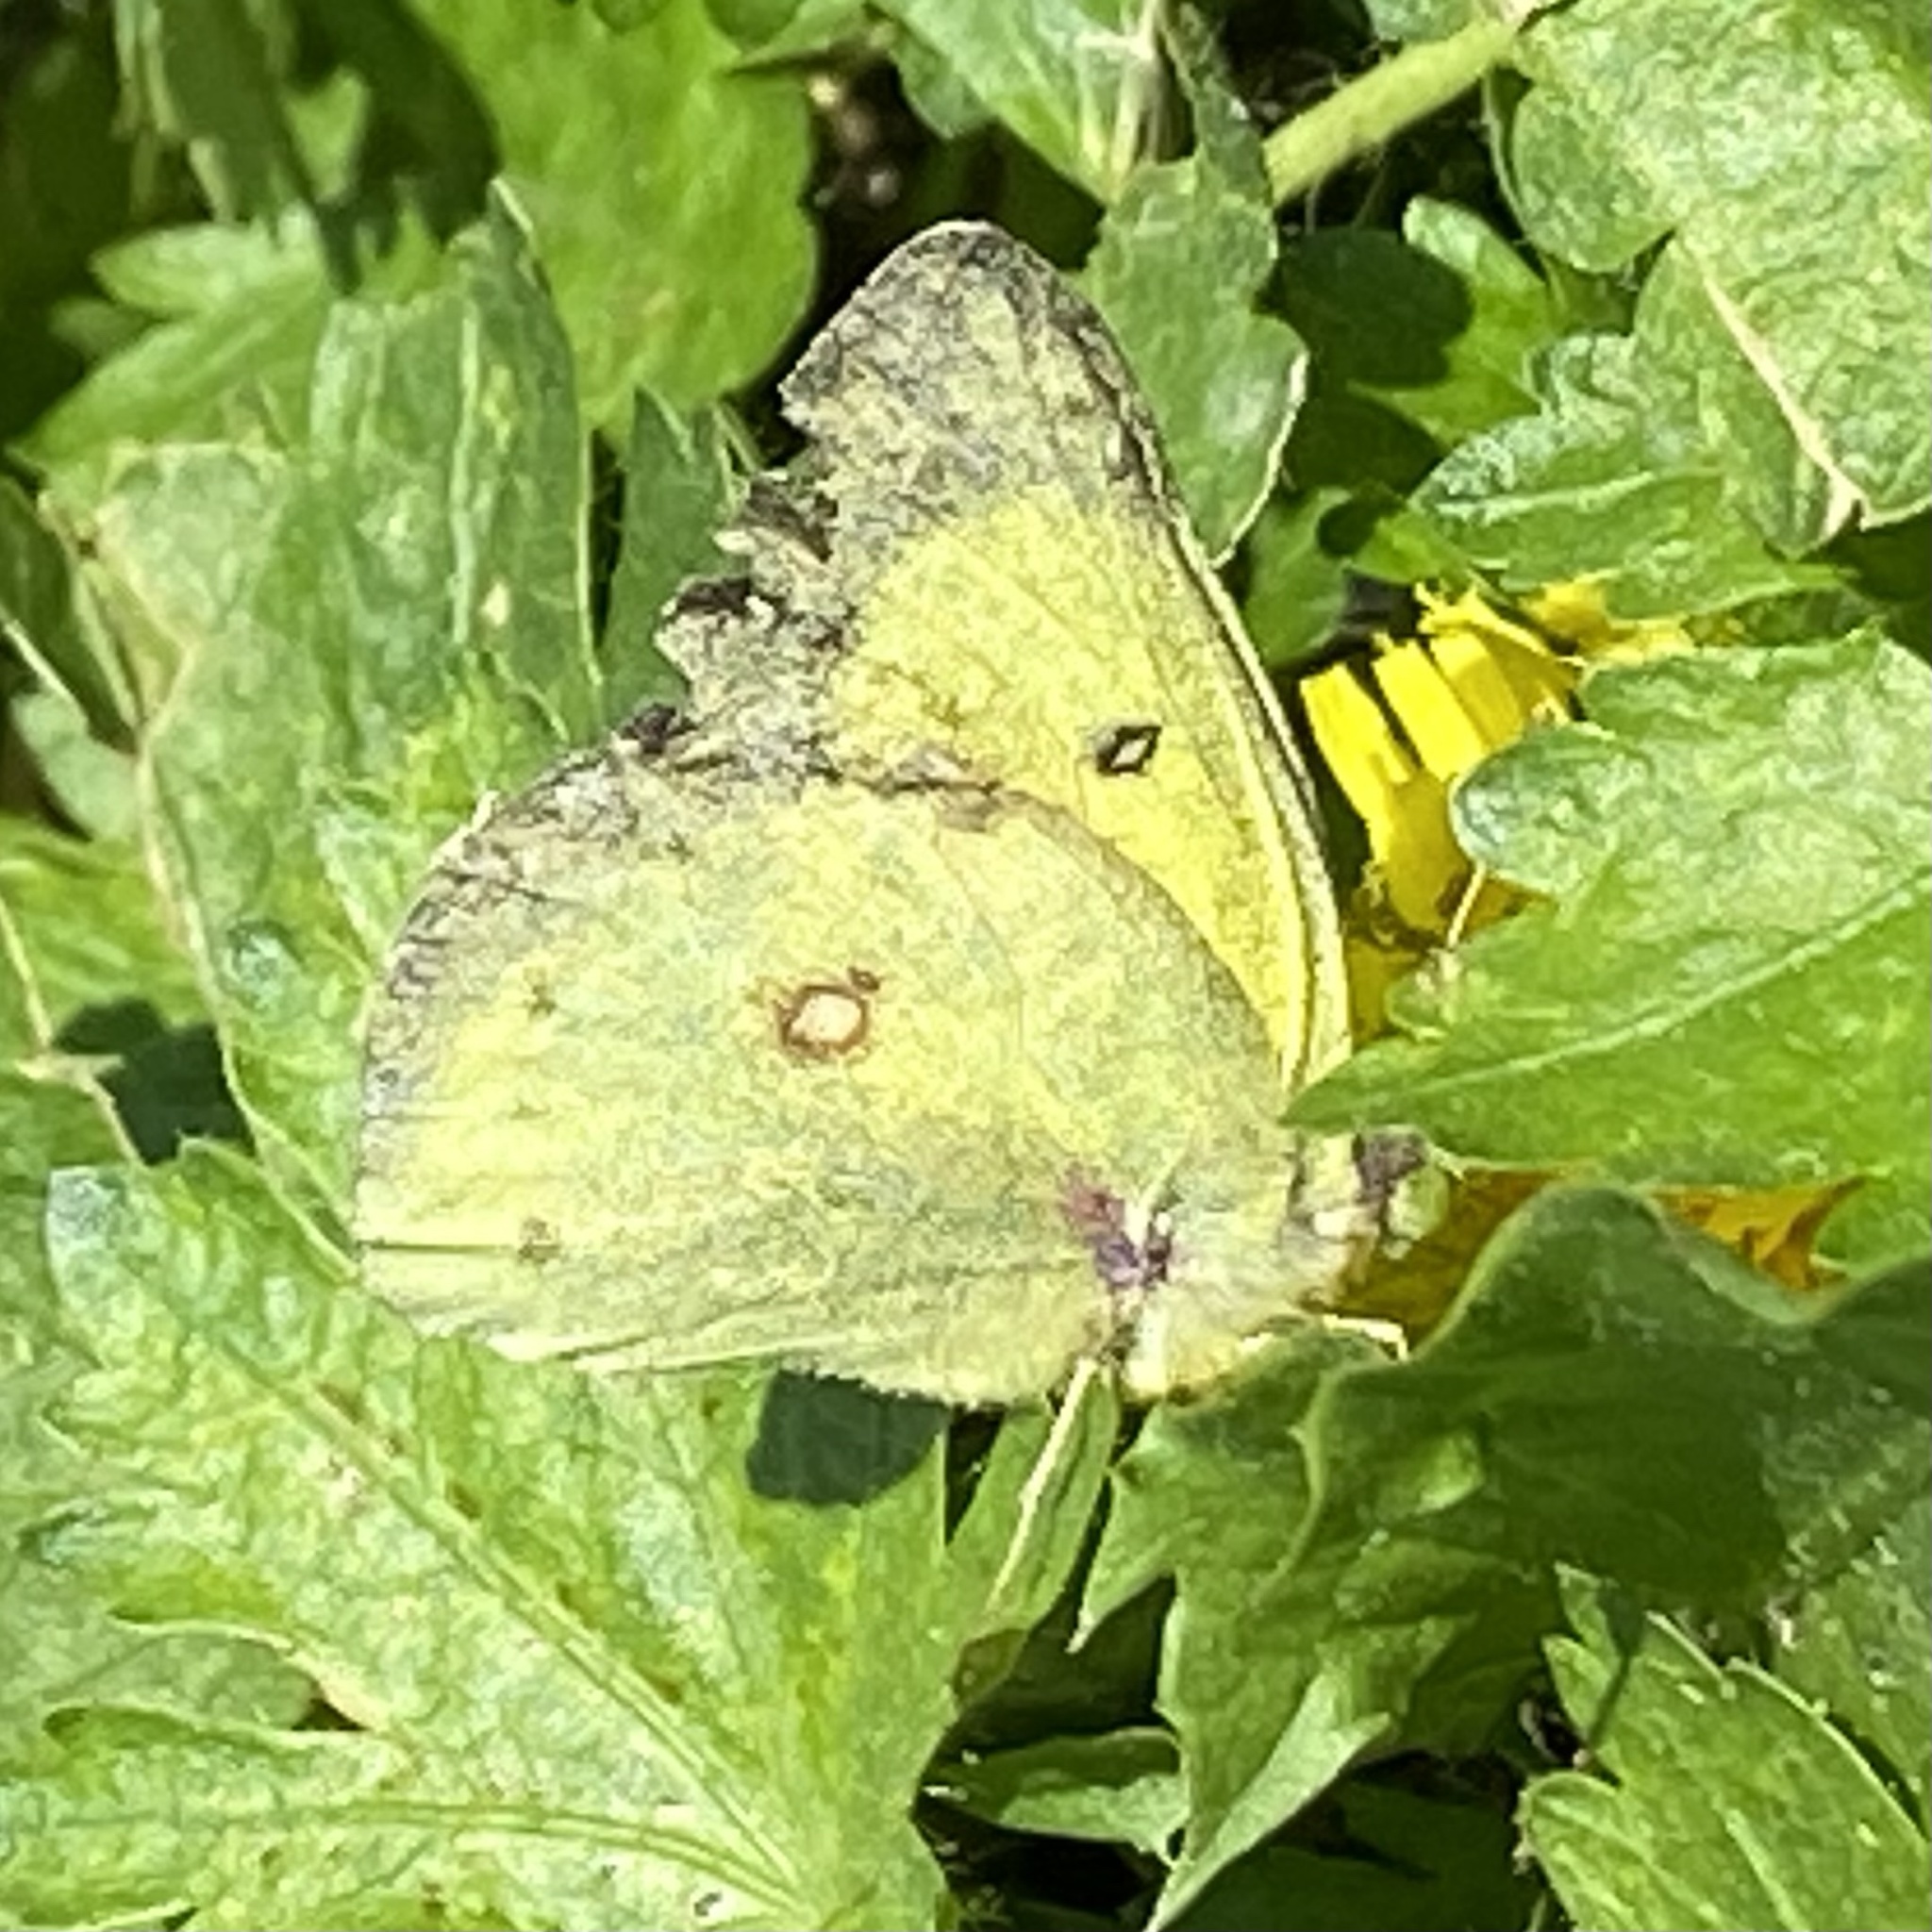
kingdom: Animalia
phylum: Arthropoda
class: Insecta
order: Lepidoptera
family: Pieridae
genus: Colias
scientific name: Colias eurytheme
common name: Alfalfa butterfly
